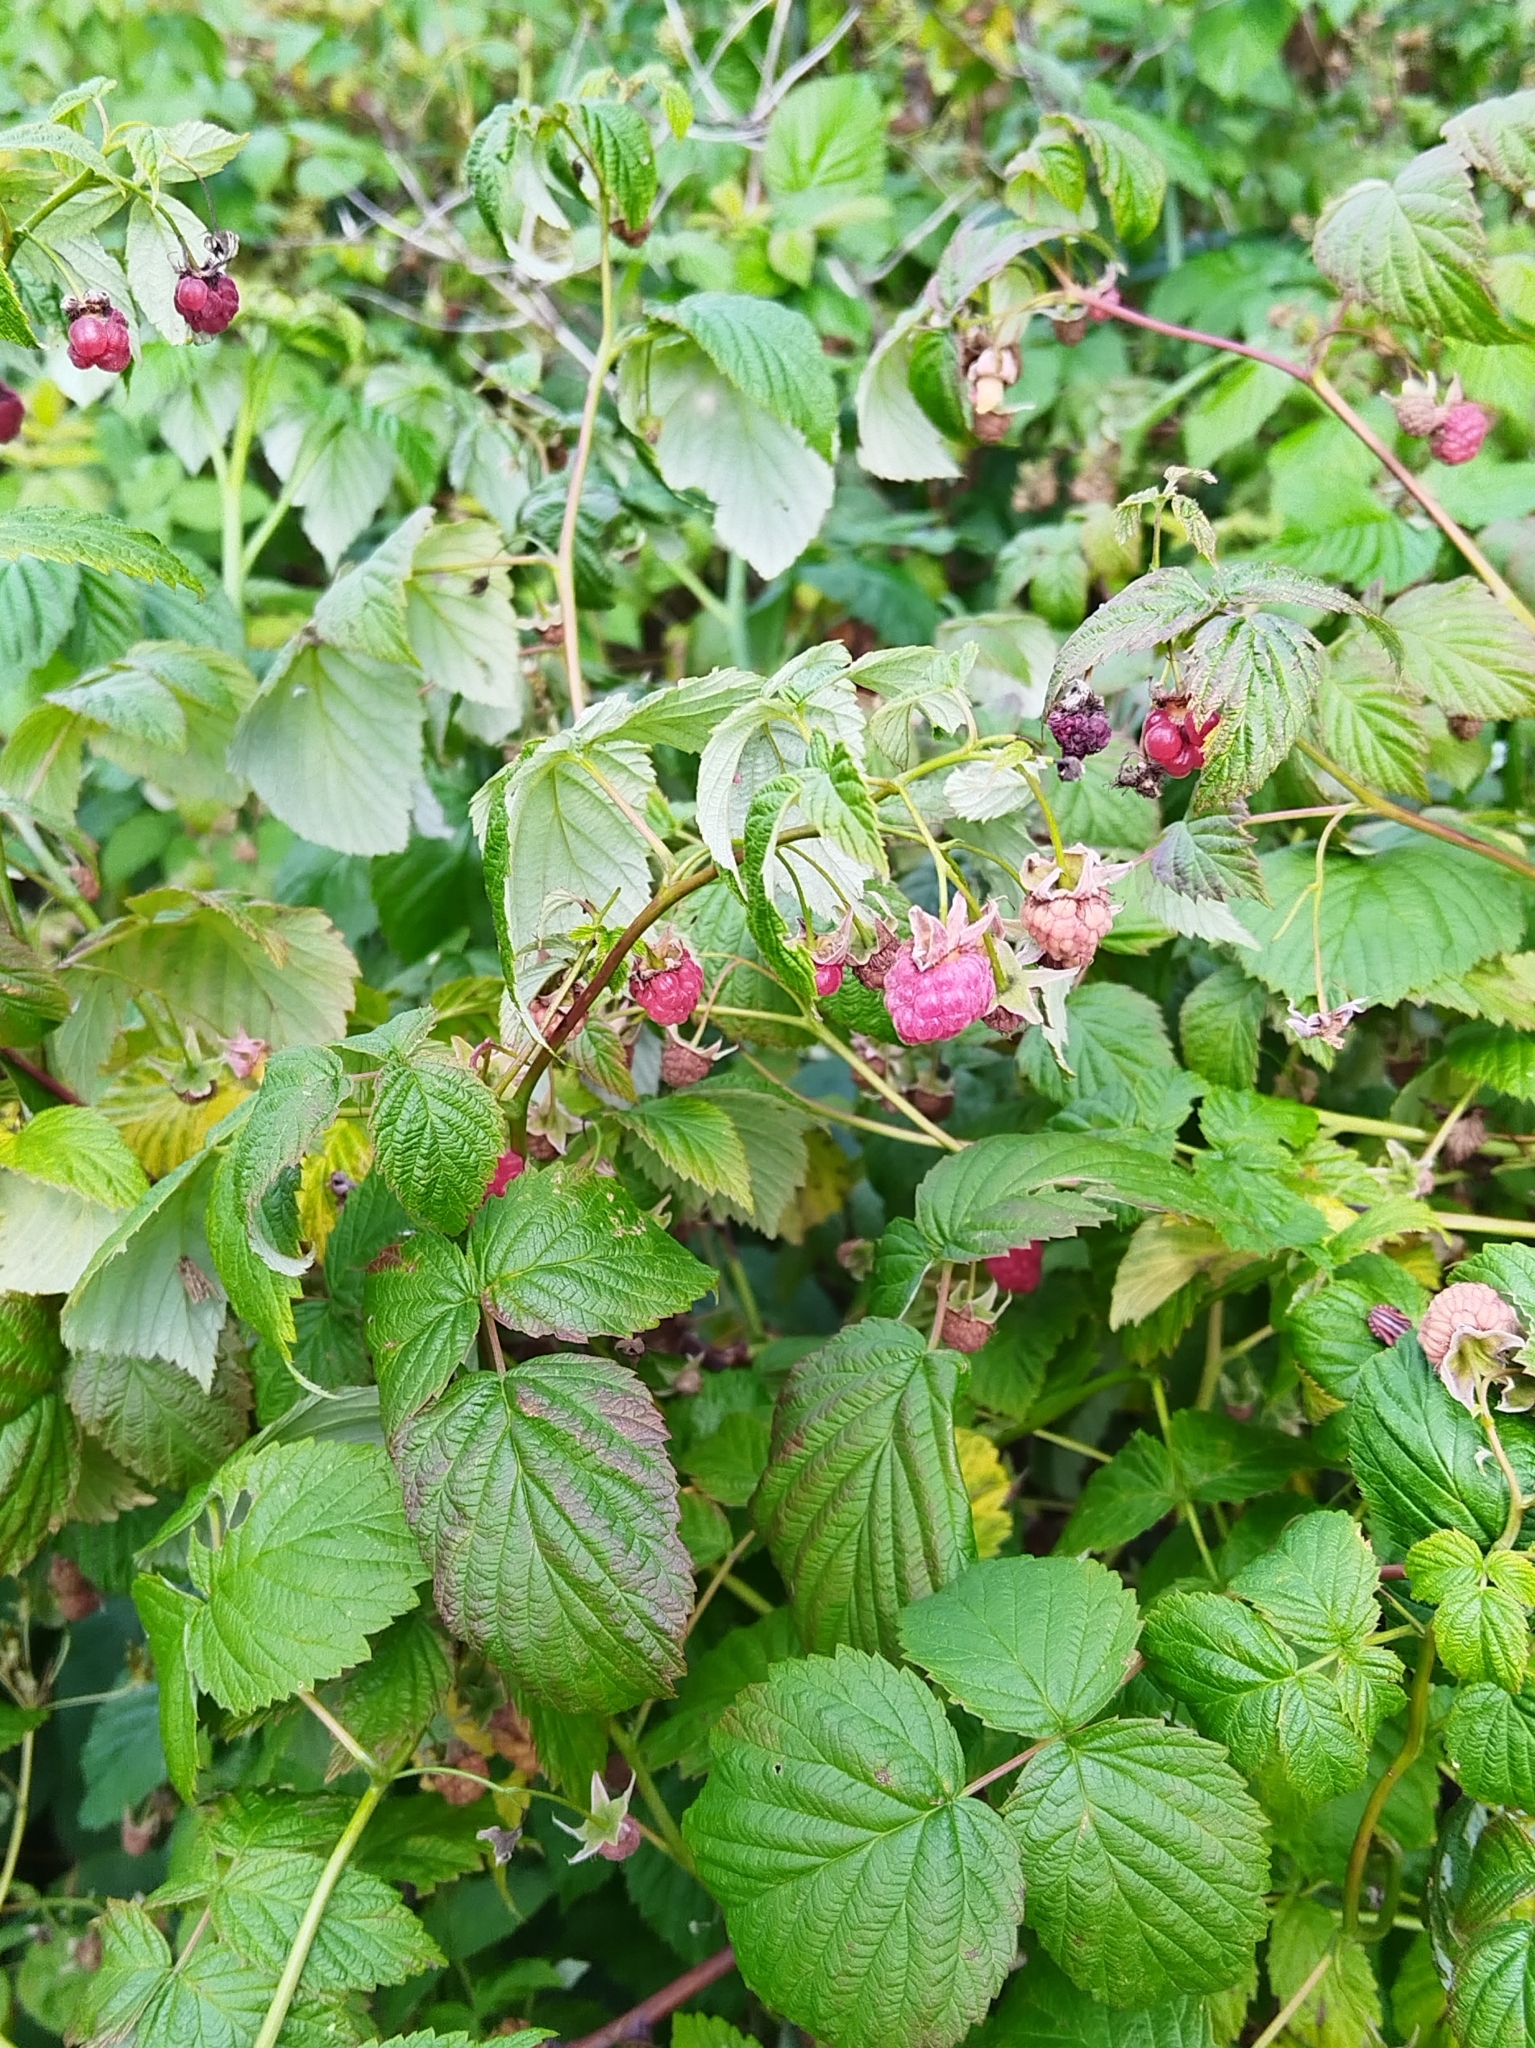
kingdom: Plantae
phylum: Tracheophyta
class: Magnoliopsida
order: Rosales
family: Rosaceae
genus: Rubus
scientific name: Rubus idaeus
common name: Raspberry
